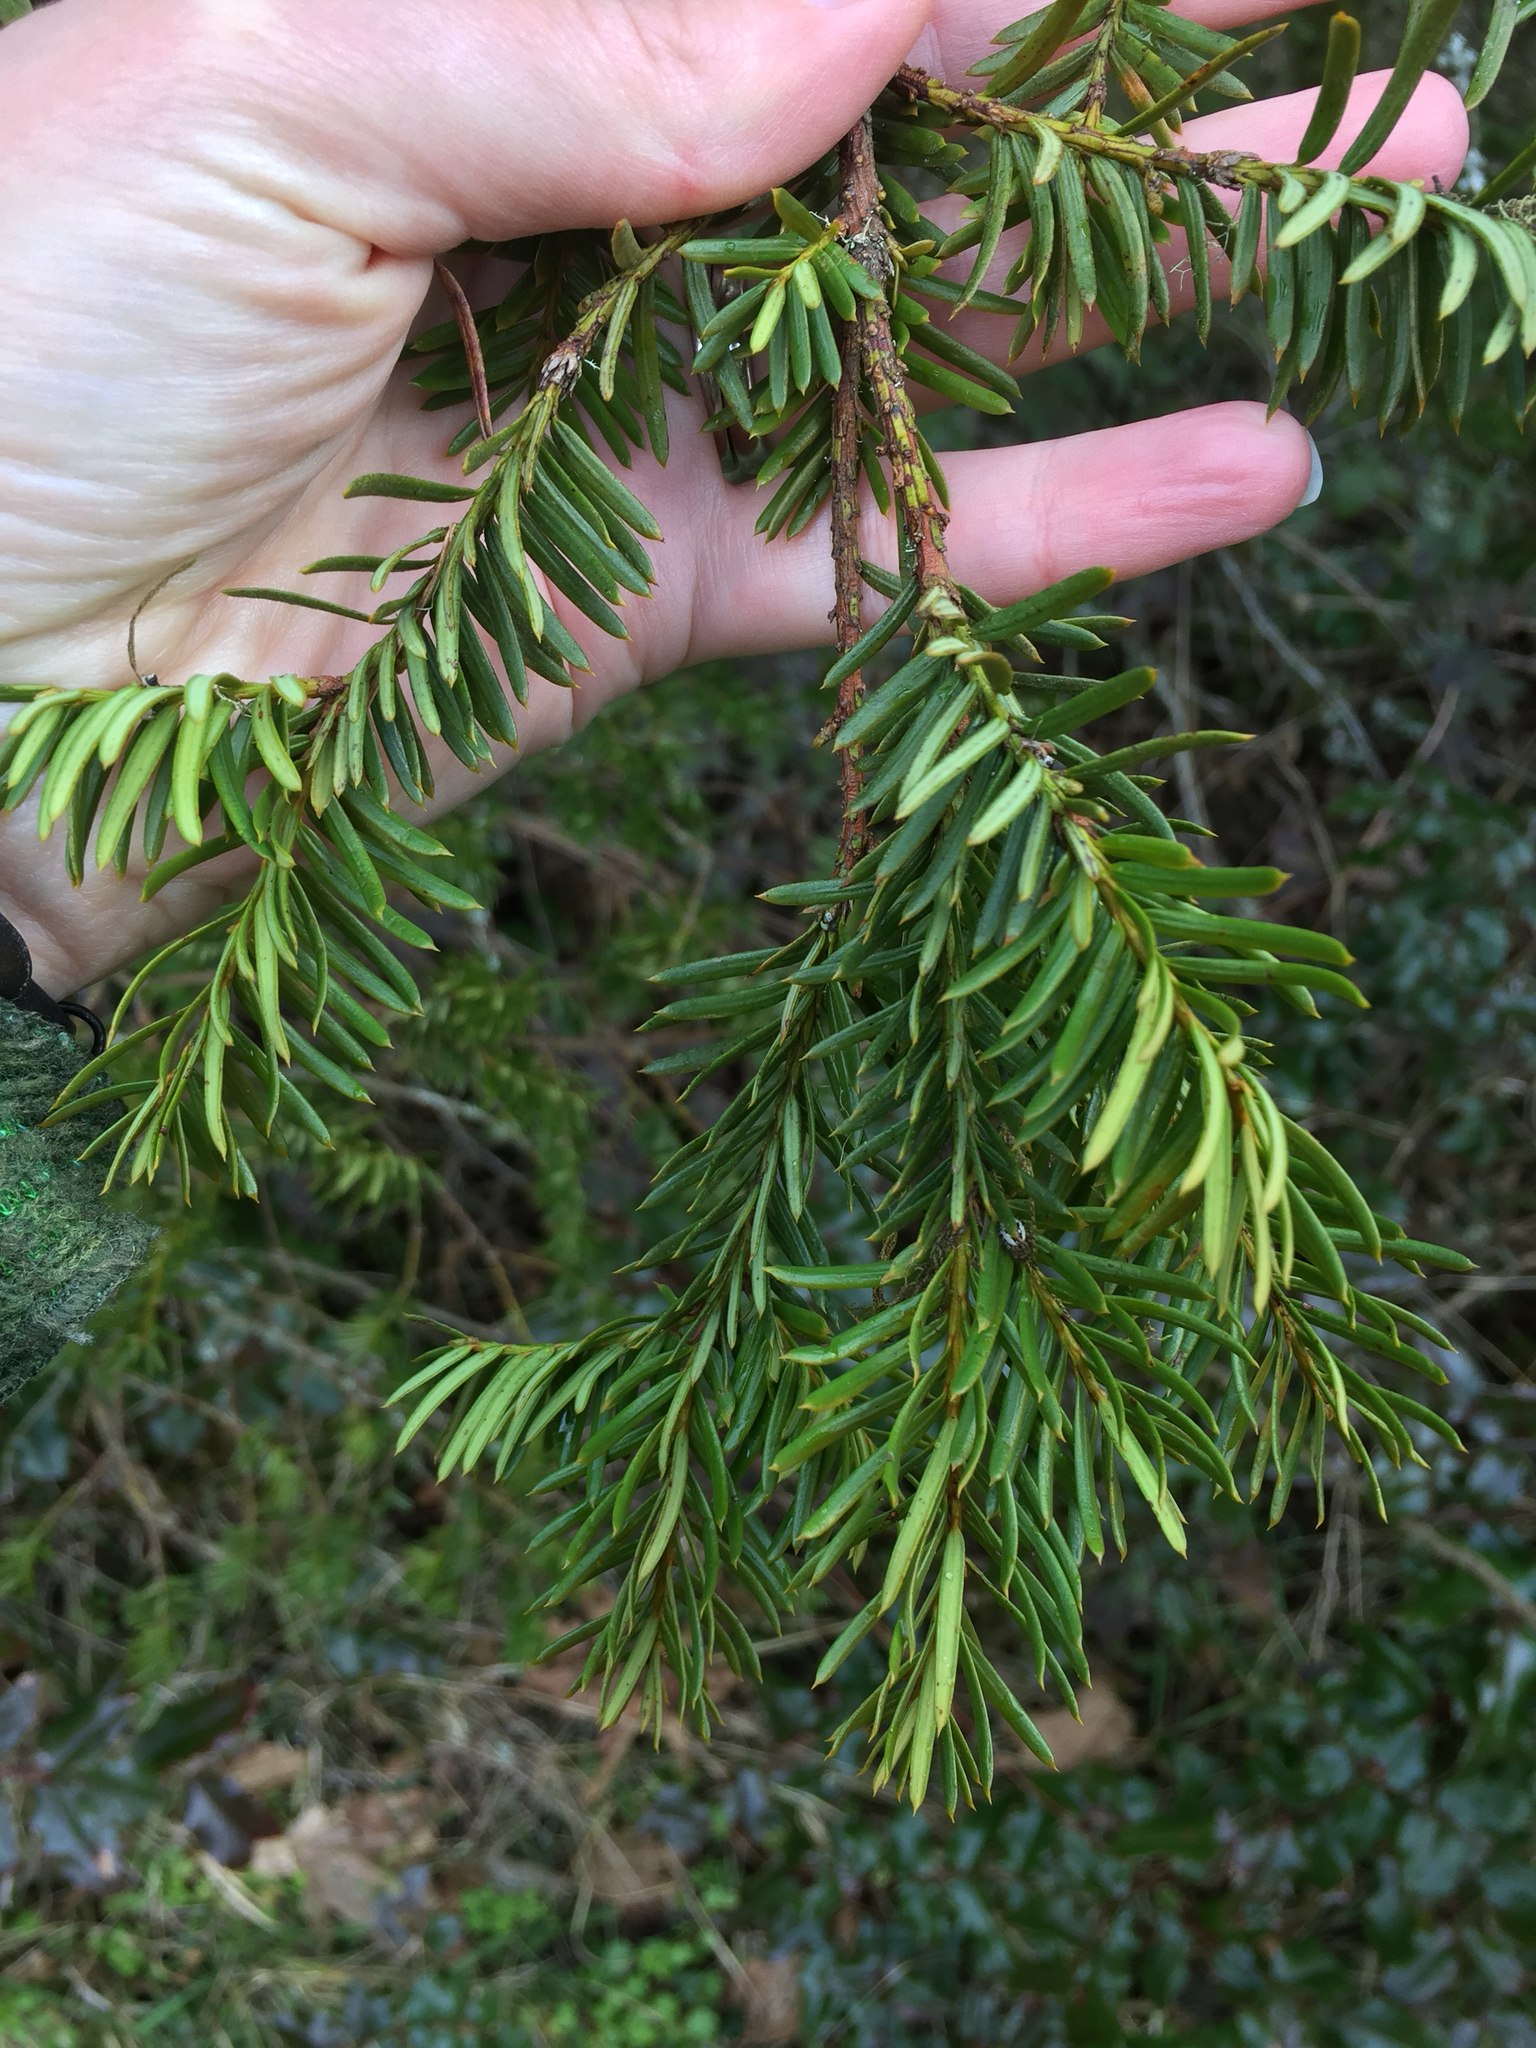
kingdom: Plantae
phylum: Tracheophyta
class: Pinopsida
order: Pinales
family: Taxaceae
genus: Taxus
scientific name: Taxus brevifolia
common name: Pacific yew
